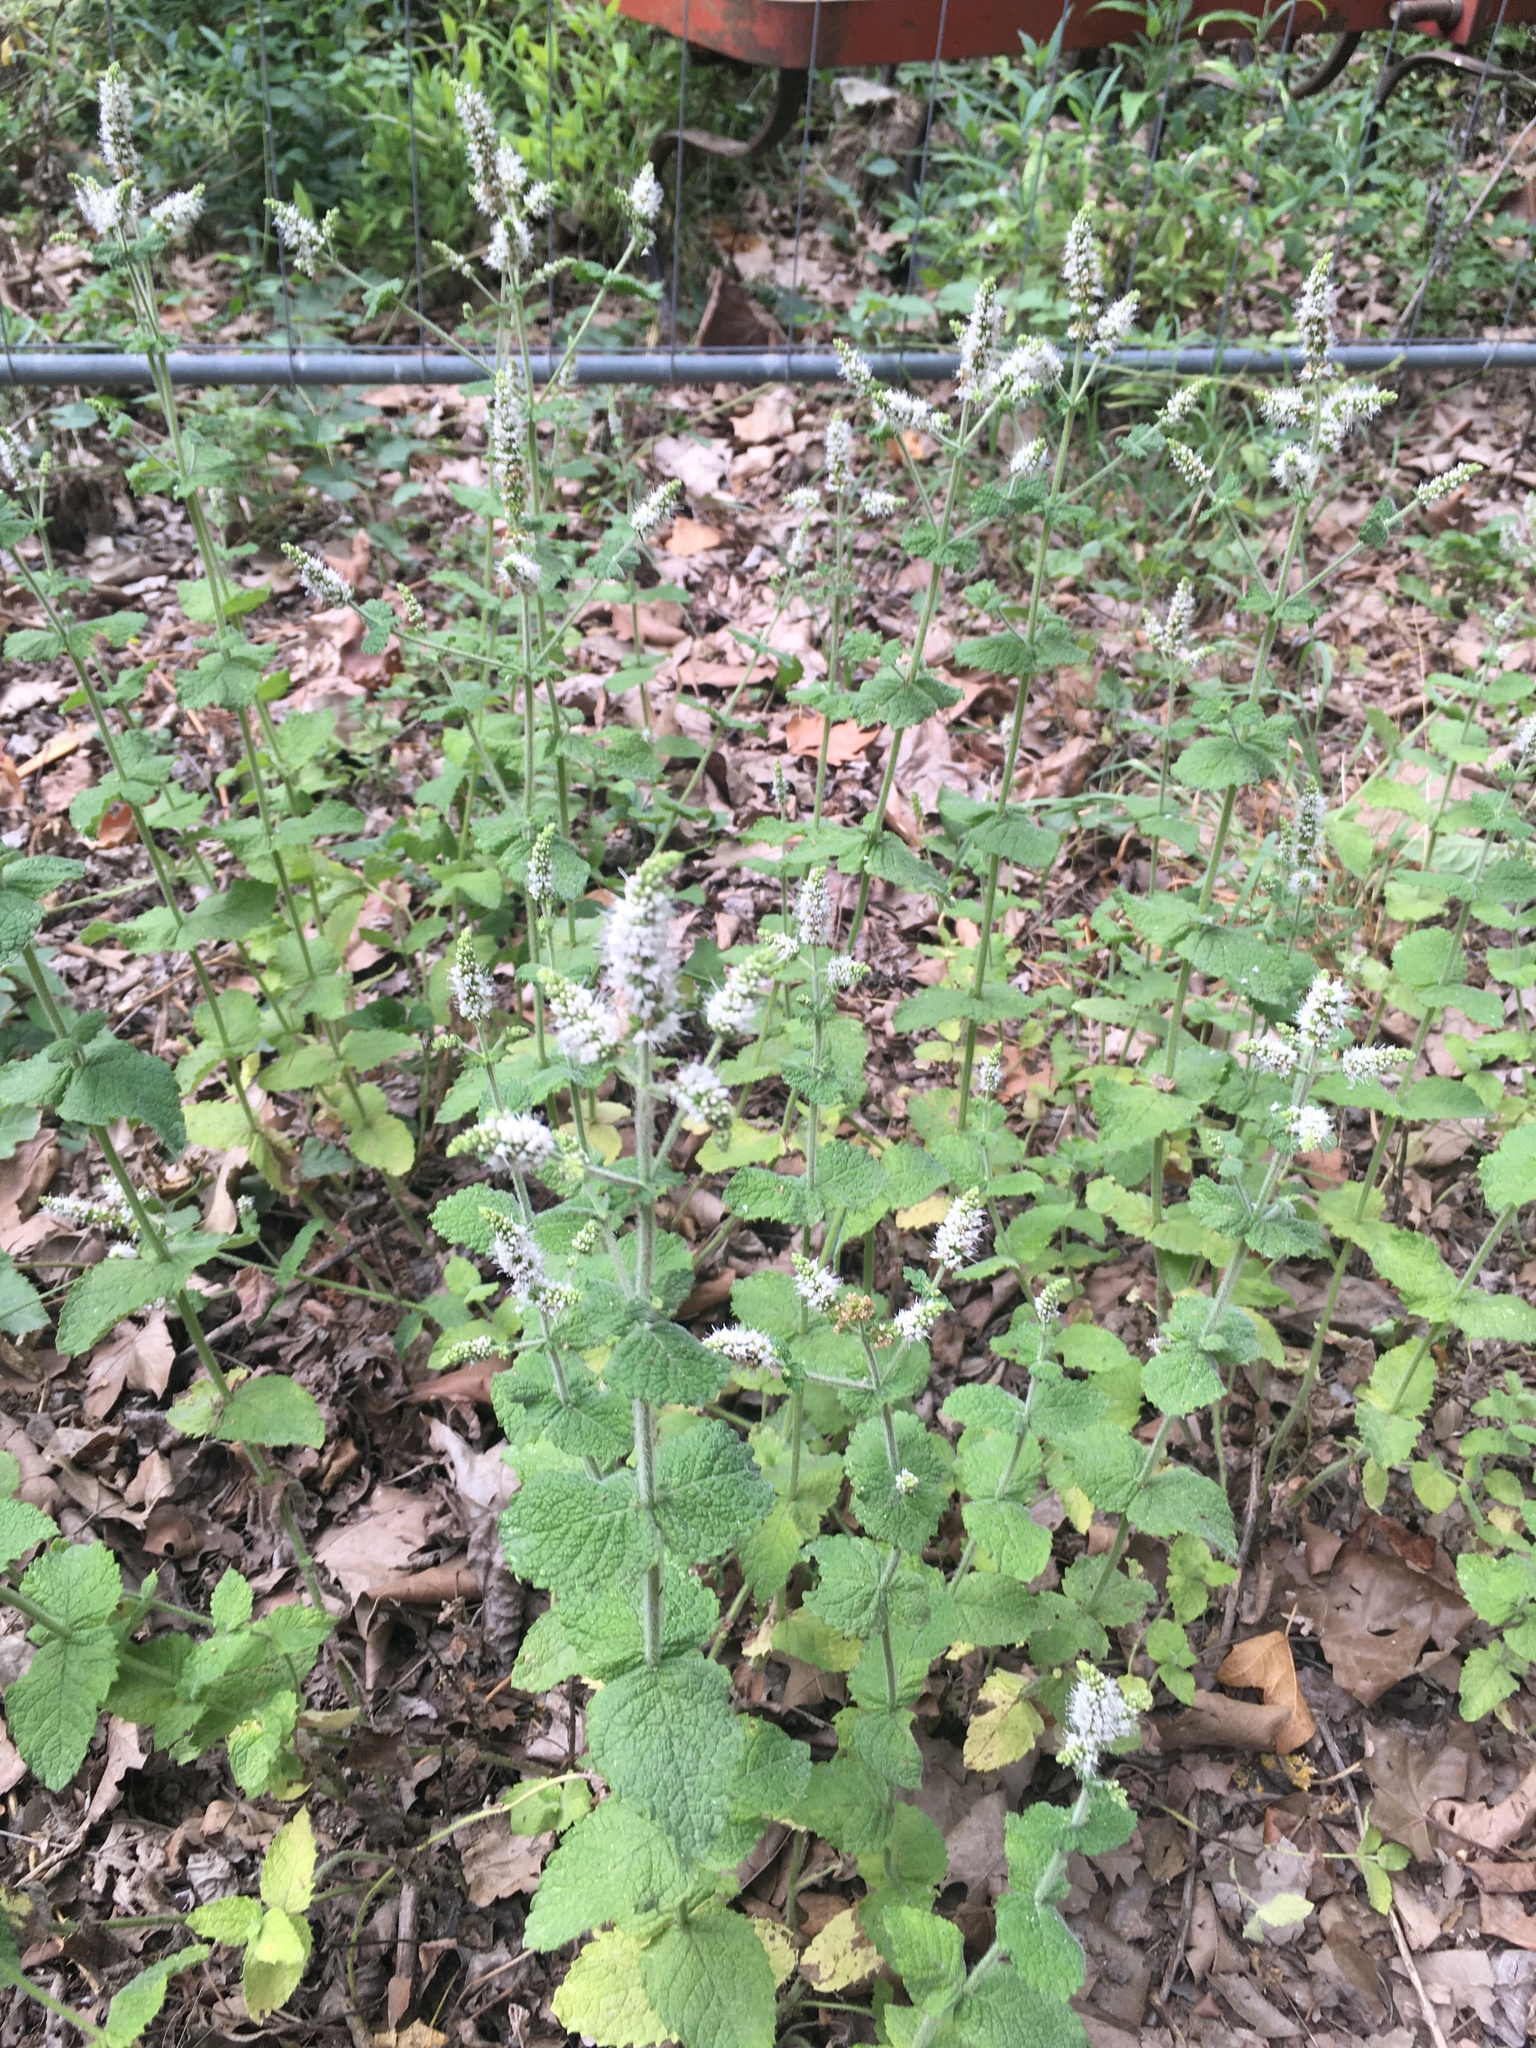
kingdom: Plantae
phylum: Tracheophyta
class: Magnoliopsida
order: Lamiales
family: Lamiaceae
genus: Mentha
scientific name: Mentha suaveolens
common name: Apple mint
